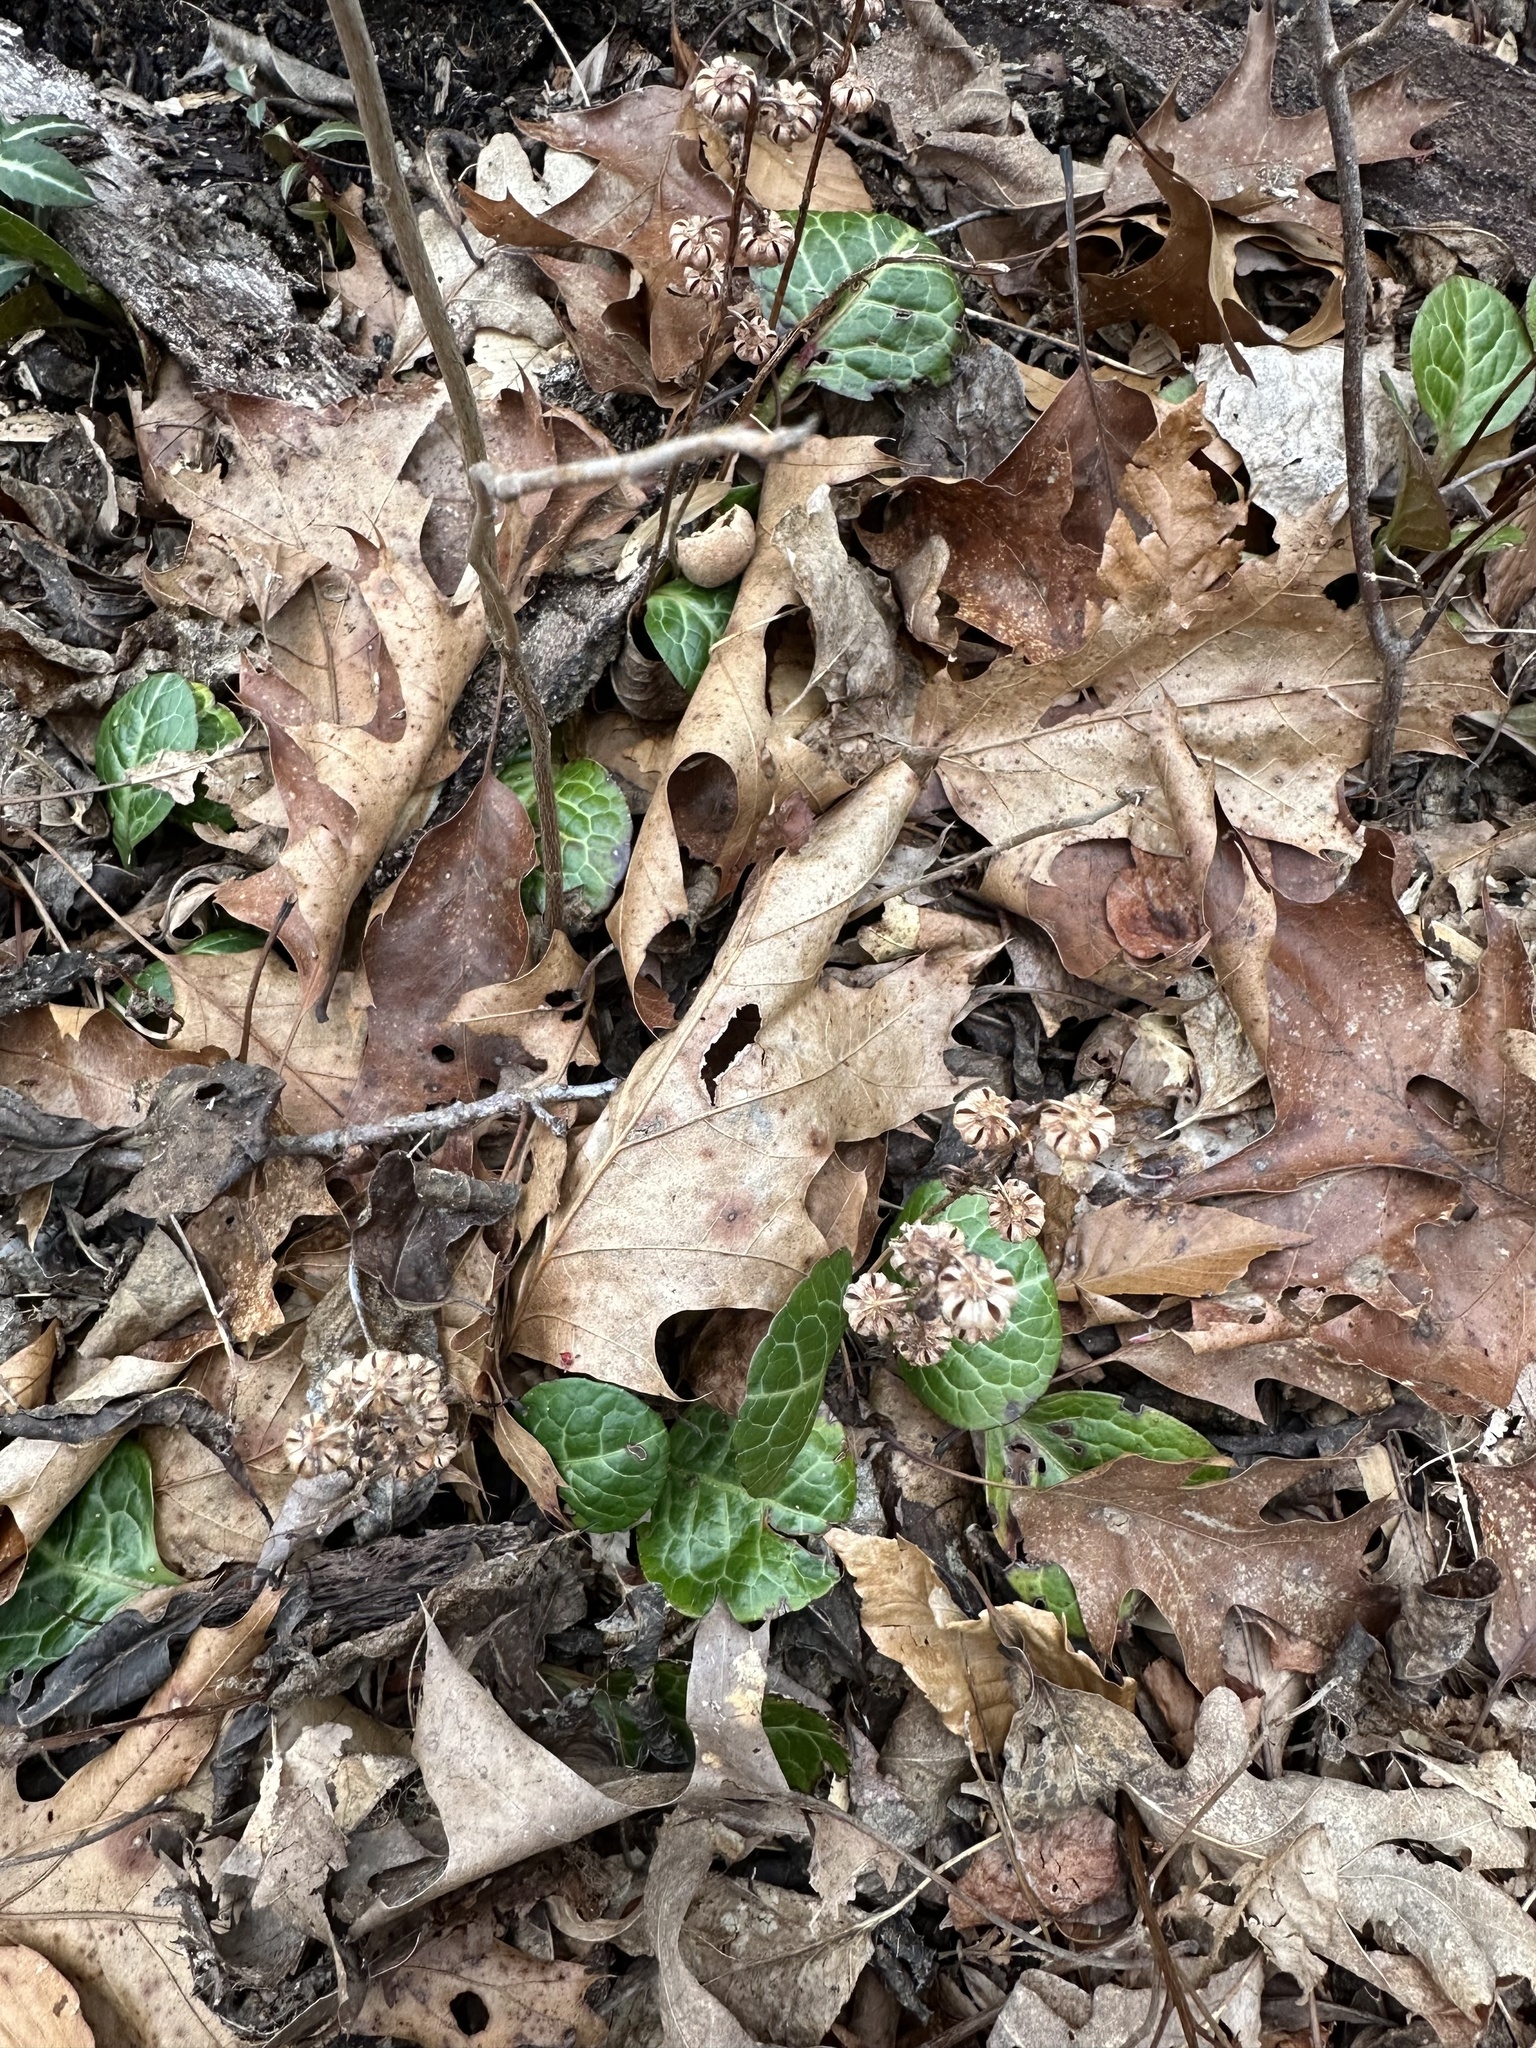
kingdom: Plantae
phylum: Tracheophyta
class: Magnoliopsida
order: Ericales
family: Ericaceae
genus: Pyrola
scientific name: Pyrola americana
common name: American wintergreen
